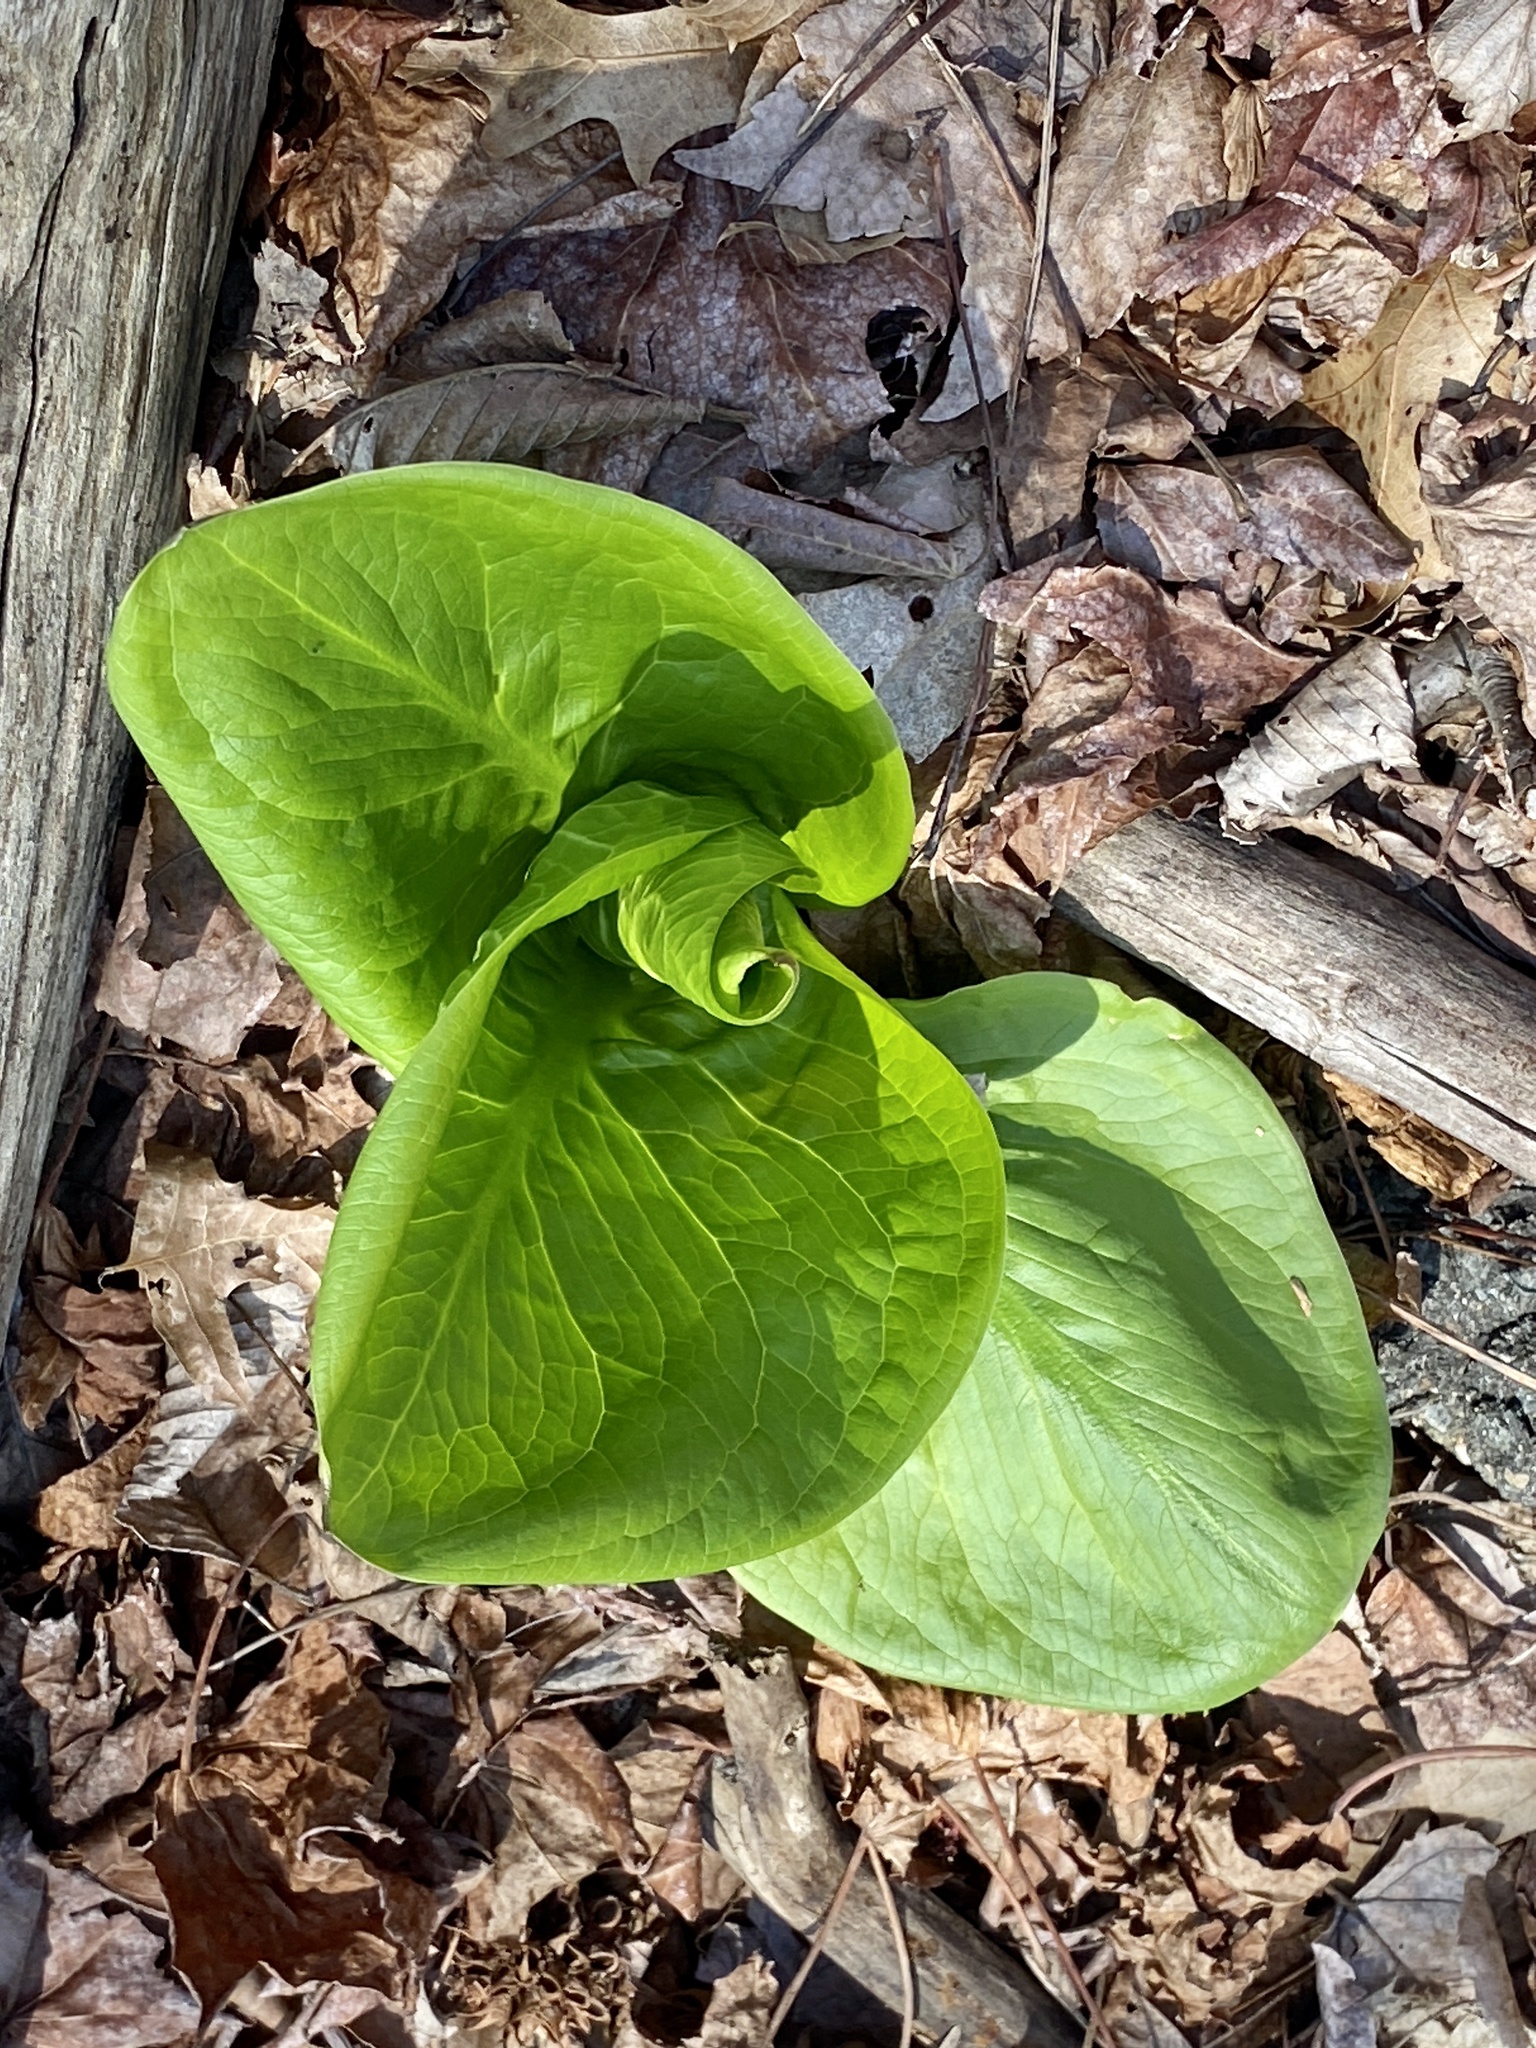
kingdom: Plantae
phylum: Tracheophyta
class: Liliopsida
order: Alismatales
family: Araceae
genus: Symplocarpus
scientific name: Symplocarpus foetidus
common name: Eastern skunk cabbage
